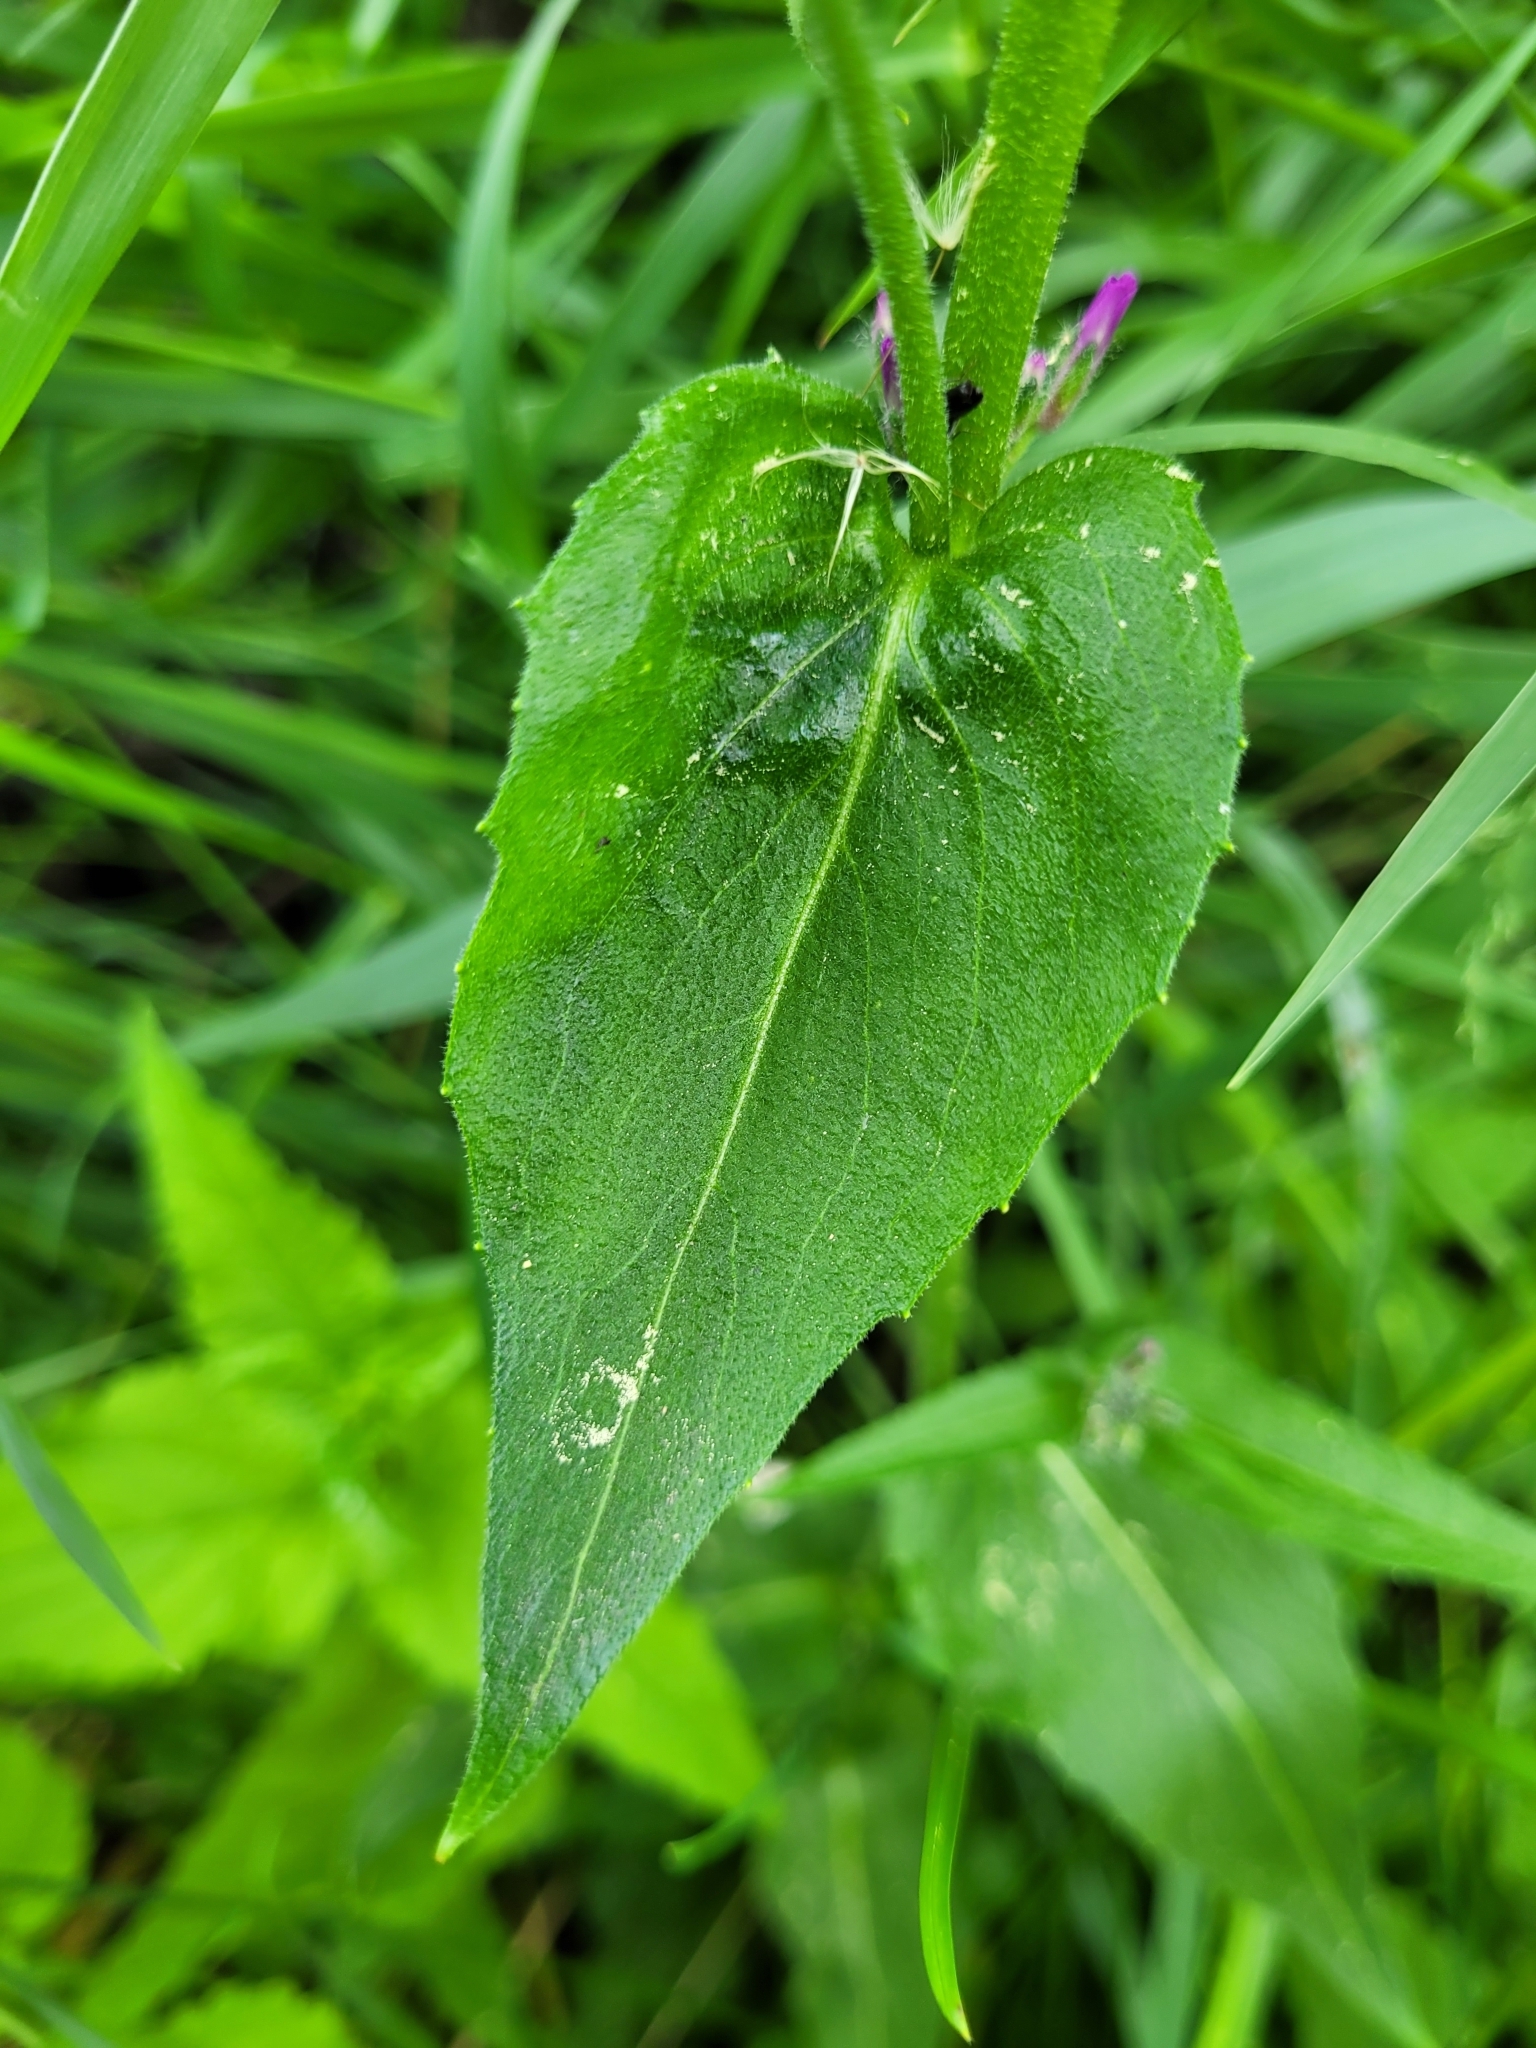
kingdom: Plantae
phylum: Tracheophyta
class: Magnoliopsida
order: Brassicales
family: Brassicaceae
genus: Hesperis
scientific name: Hesperis matronalis
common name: Dame's-violet
